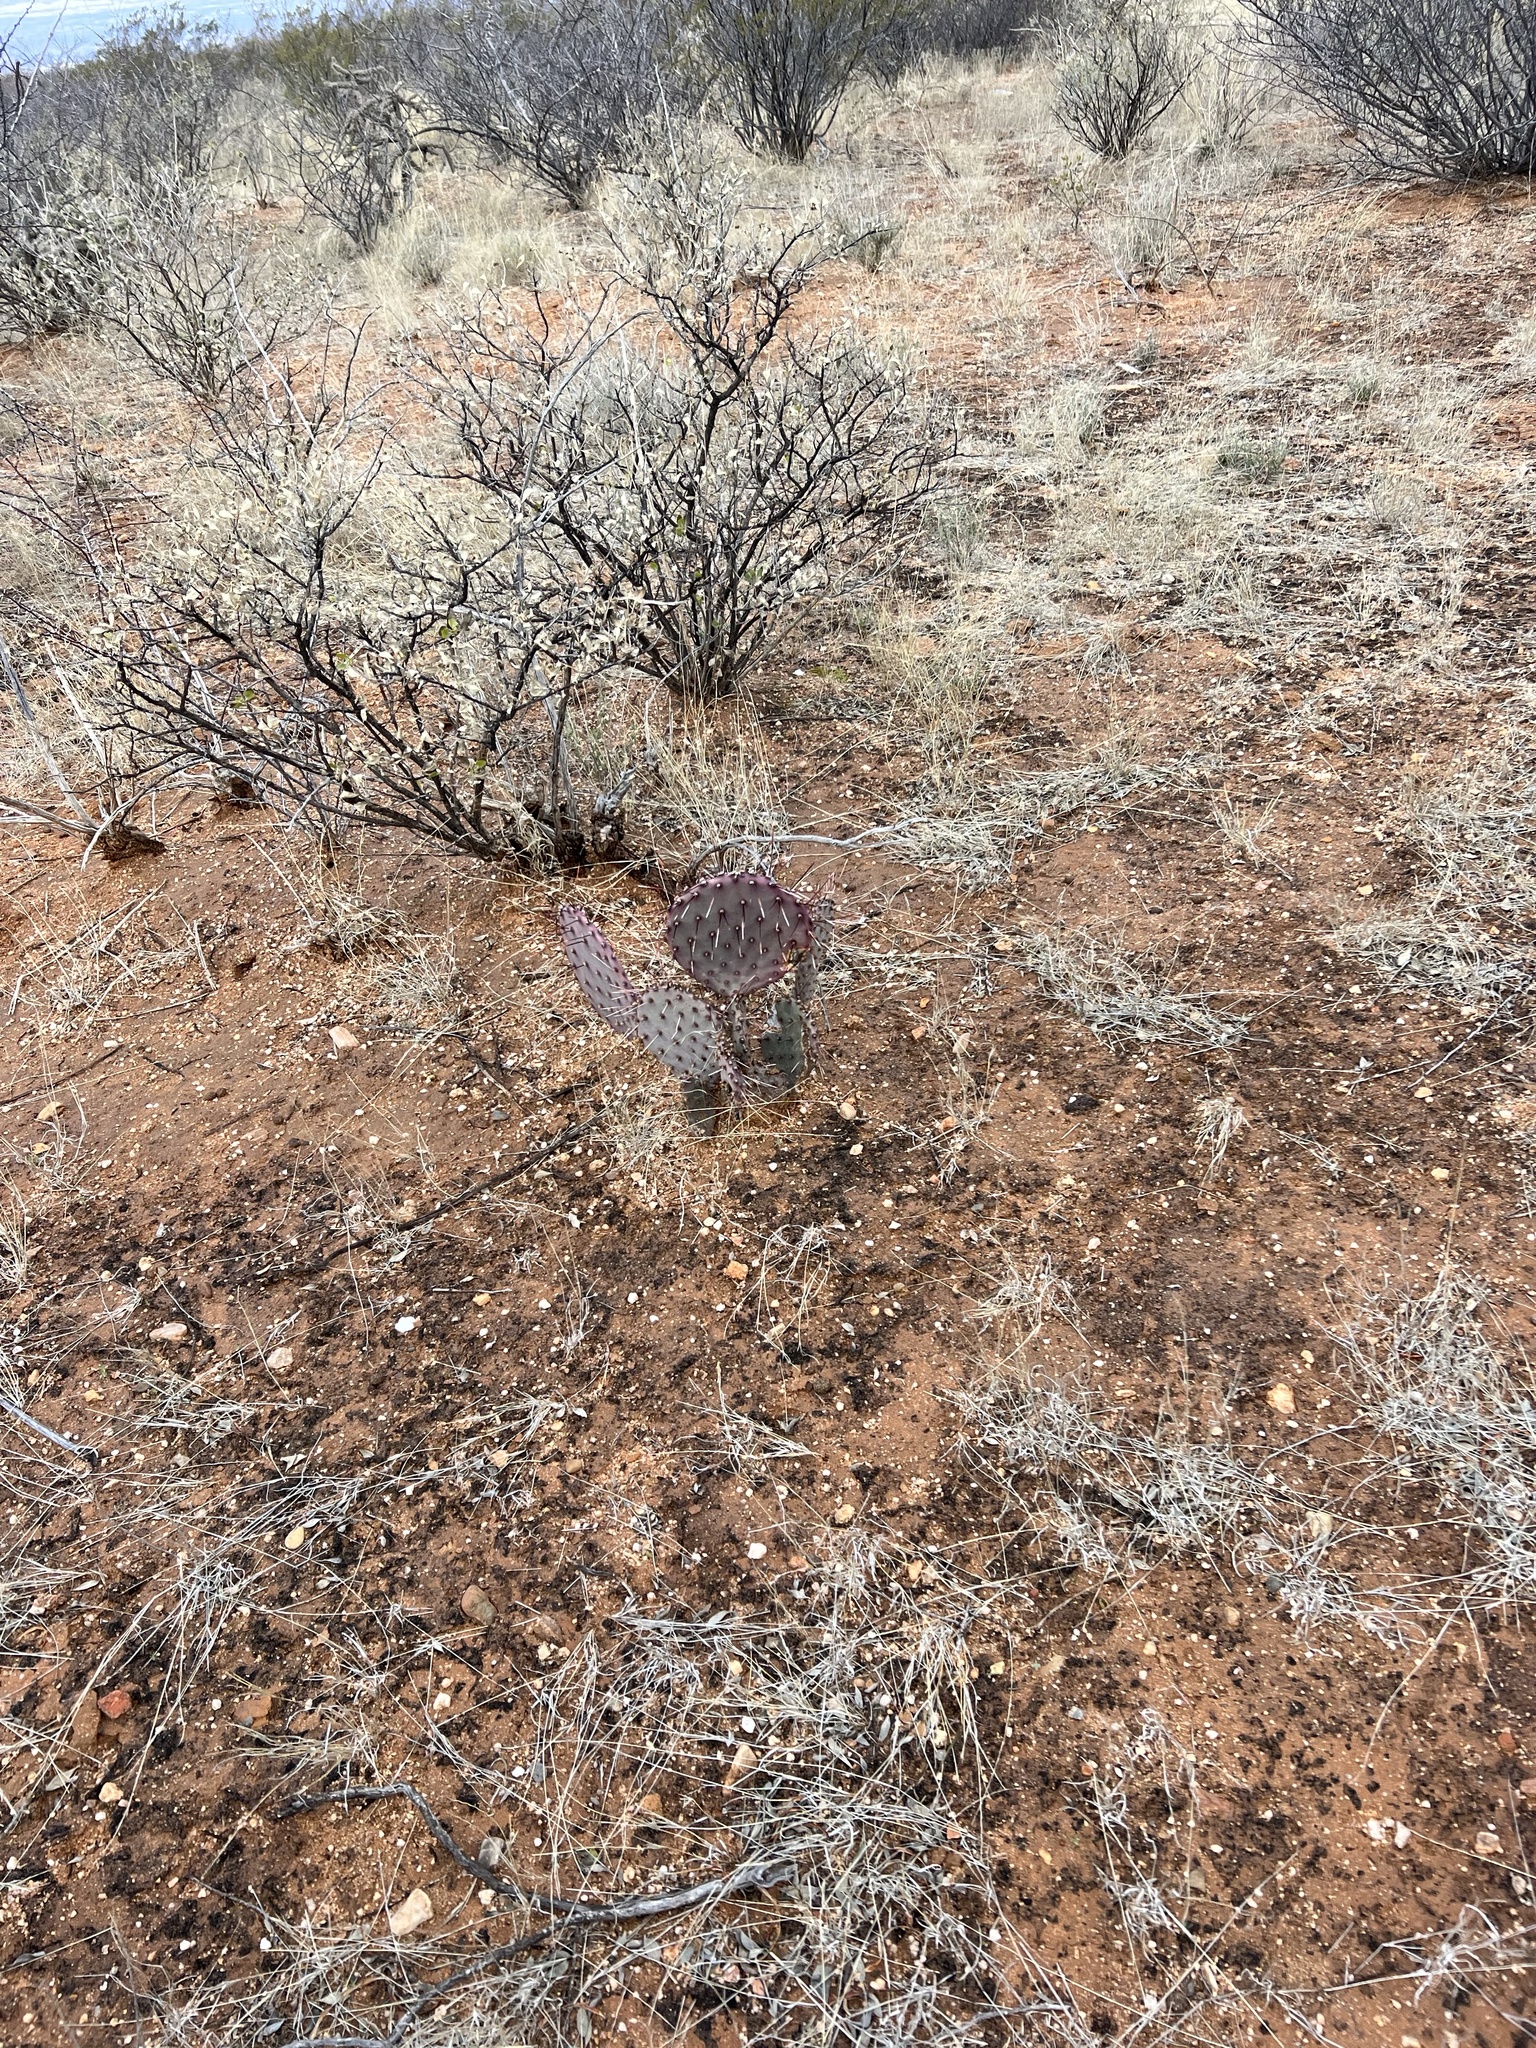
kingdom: Plantae
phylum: Tracheophyta
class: Magnoliopsida
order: Caryophyllales
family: Cactaceae
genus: Opuntia
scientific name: Opuntia macrocentra
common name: Purple prickly-pear
